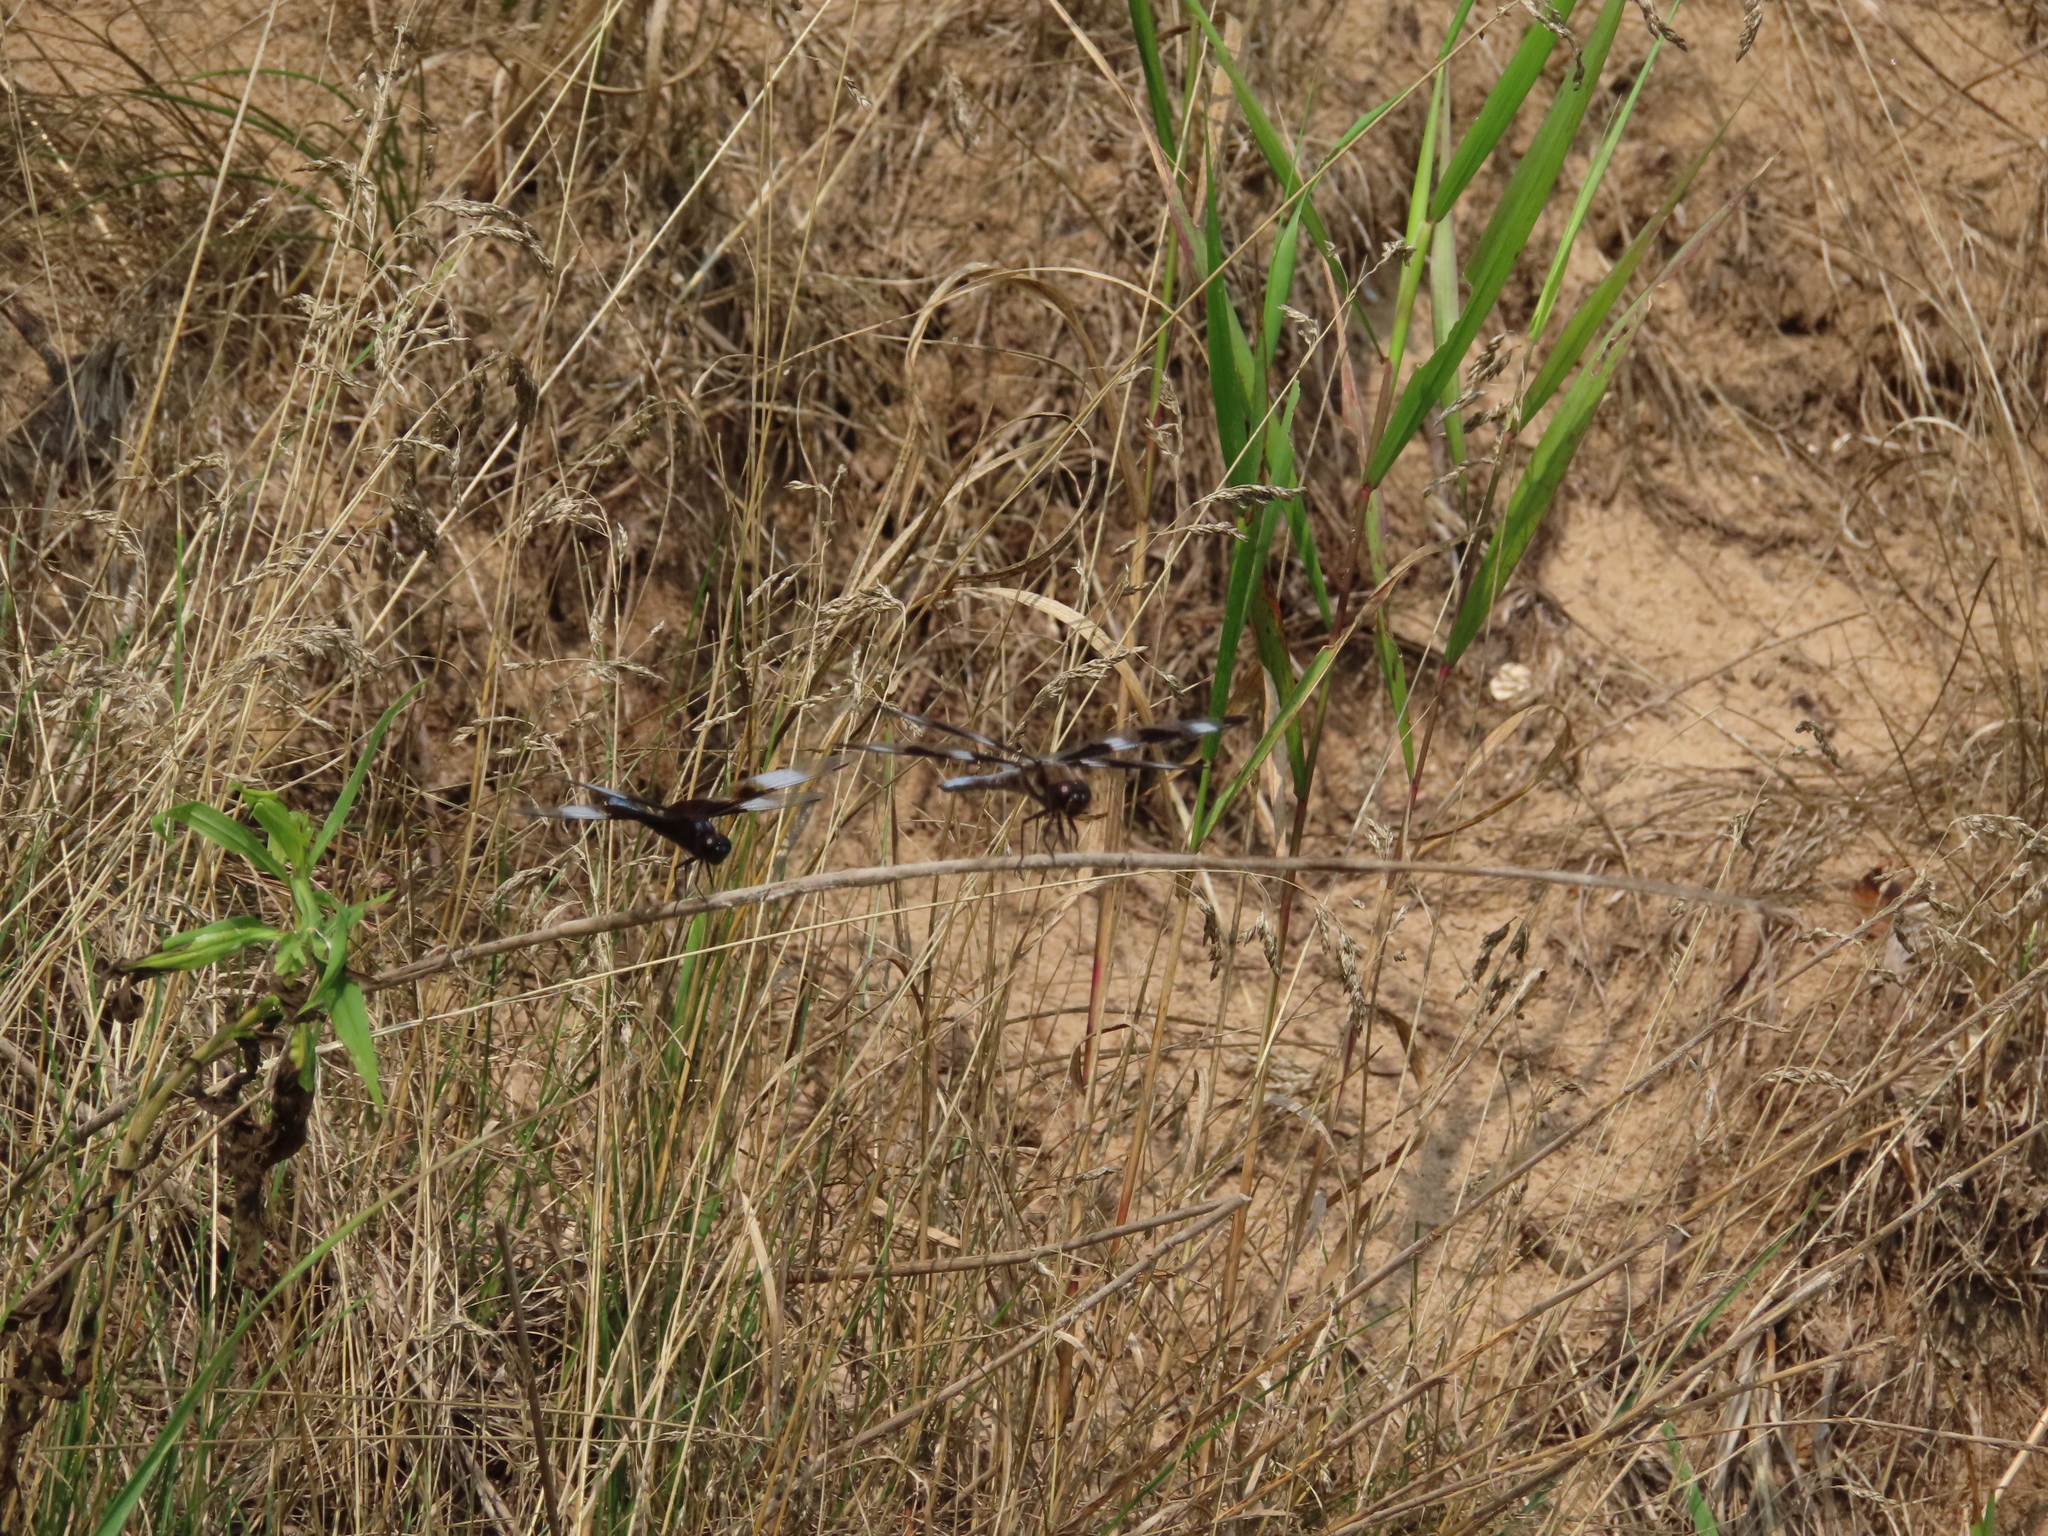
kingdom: Animalia
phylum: Arthropoda
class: Insecta
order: Odonata
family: Libellulidae
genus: Libellula
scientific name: Libellula luctuosa
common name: Widow skimmer
